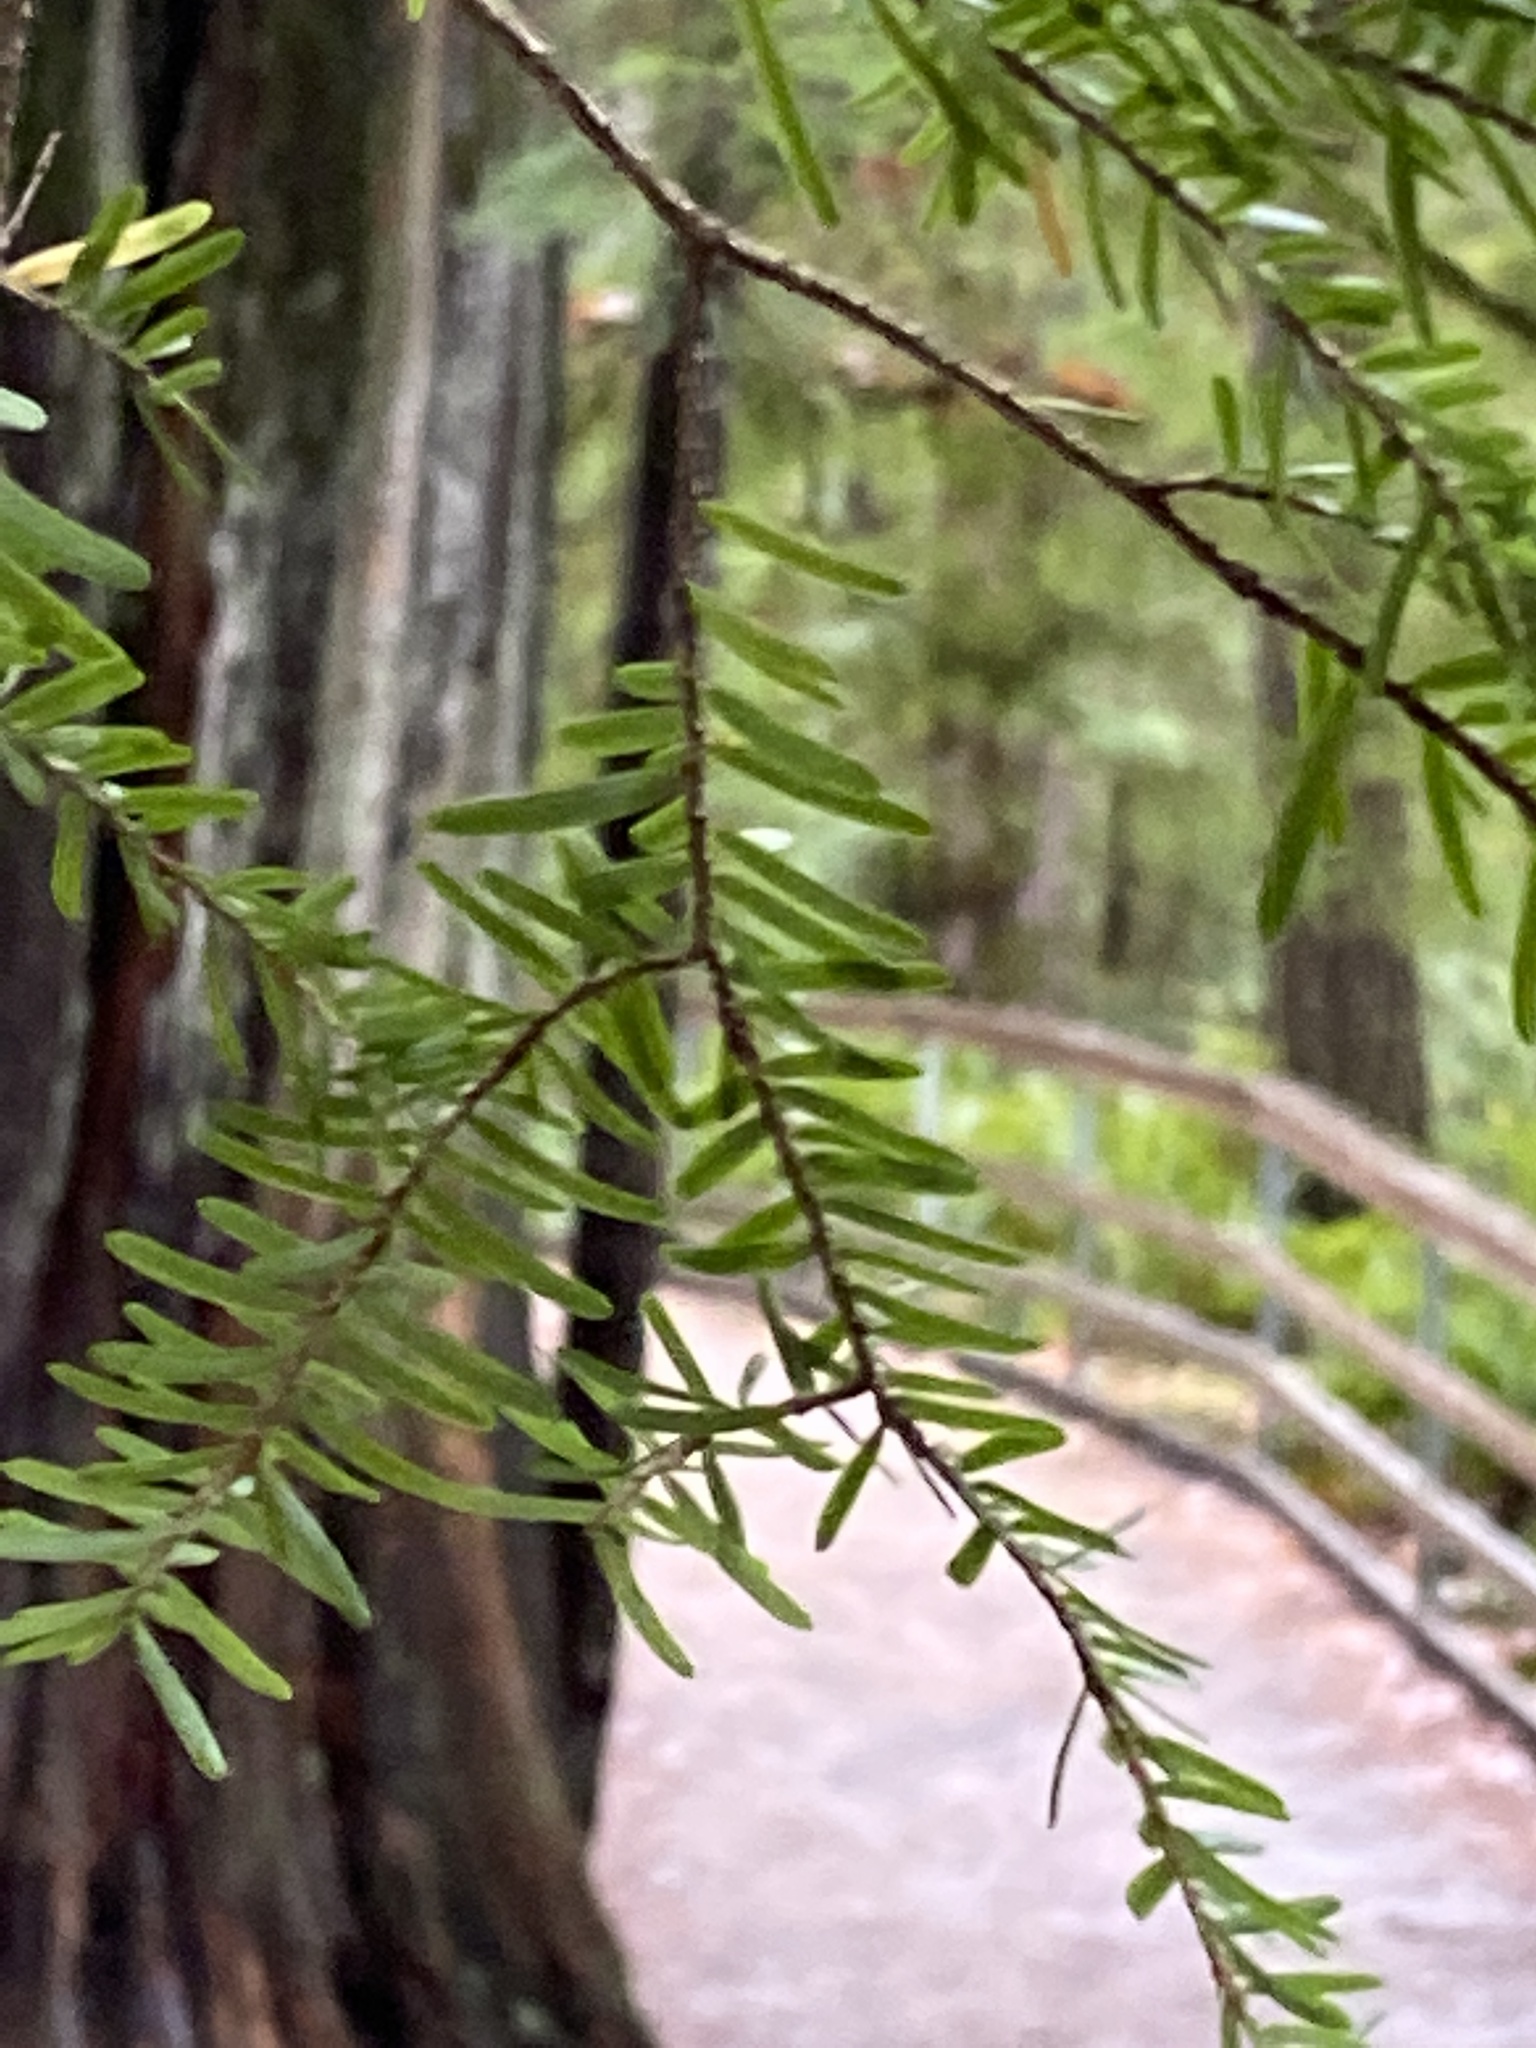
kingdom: Plantae
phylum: Tracheophyta
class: Pinopsida
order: Pinales
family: Pinaceae
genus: Tsuga
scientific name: Tsuga heterophylla
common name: Western hemlock
